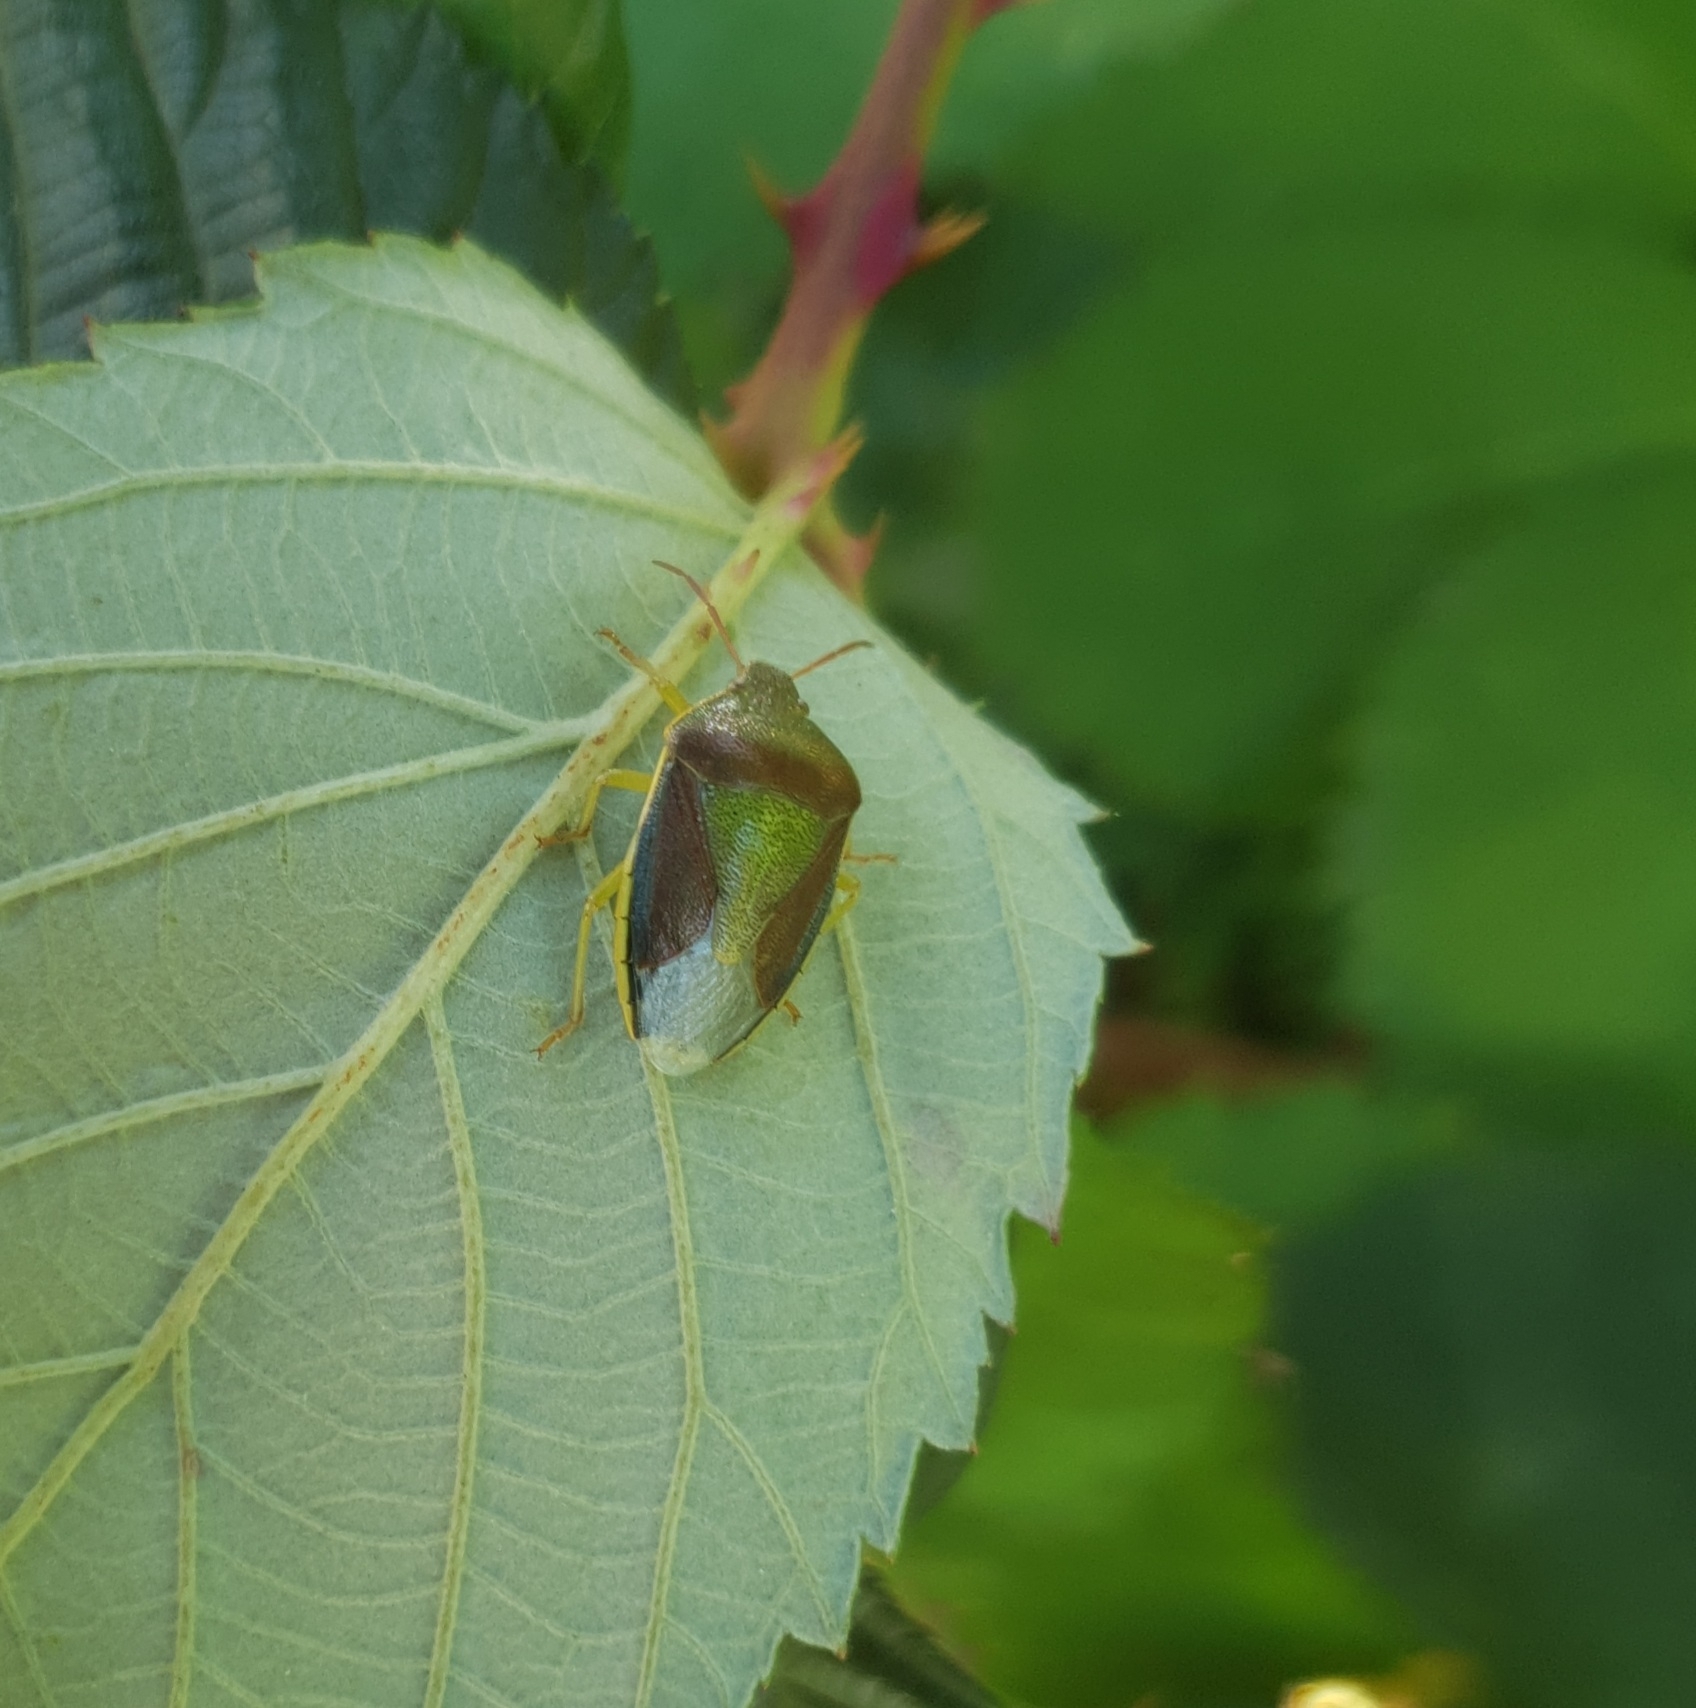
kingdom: Animalia
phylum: Arthropoda
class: Insecta
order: Hemiptera
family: Pentatomidae
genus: Piezodorus
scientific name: Piezodorus lituratus
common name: Stink bug
